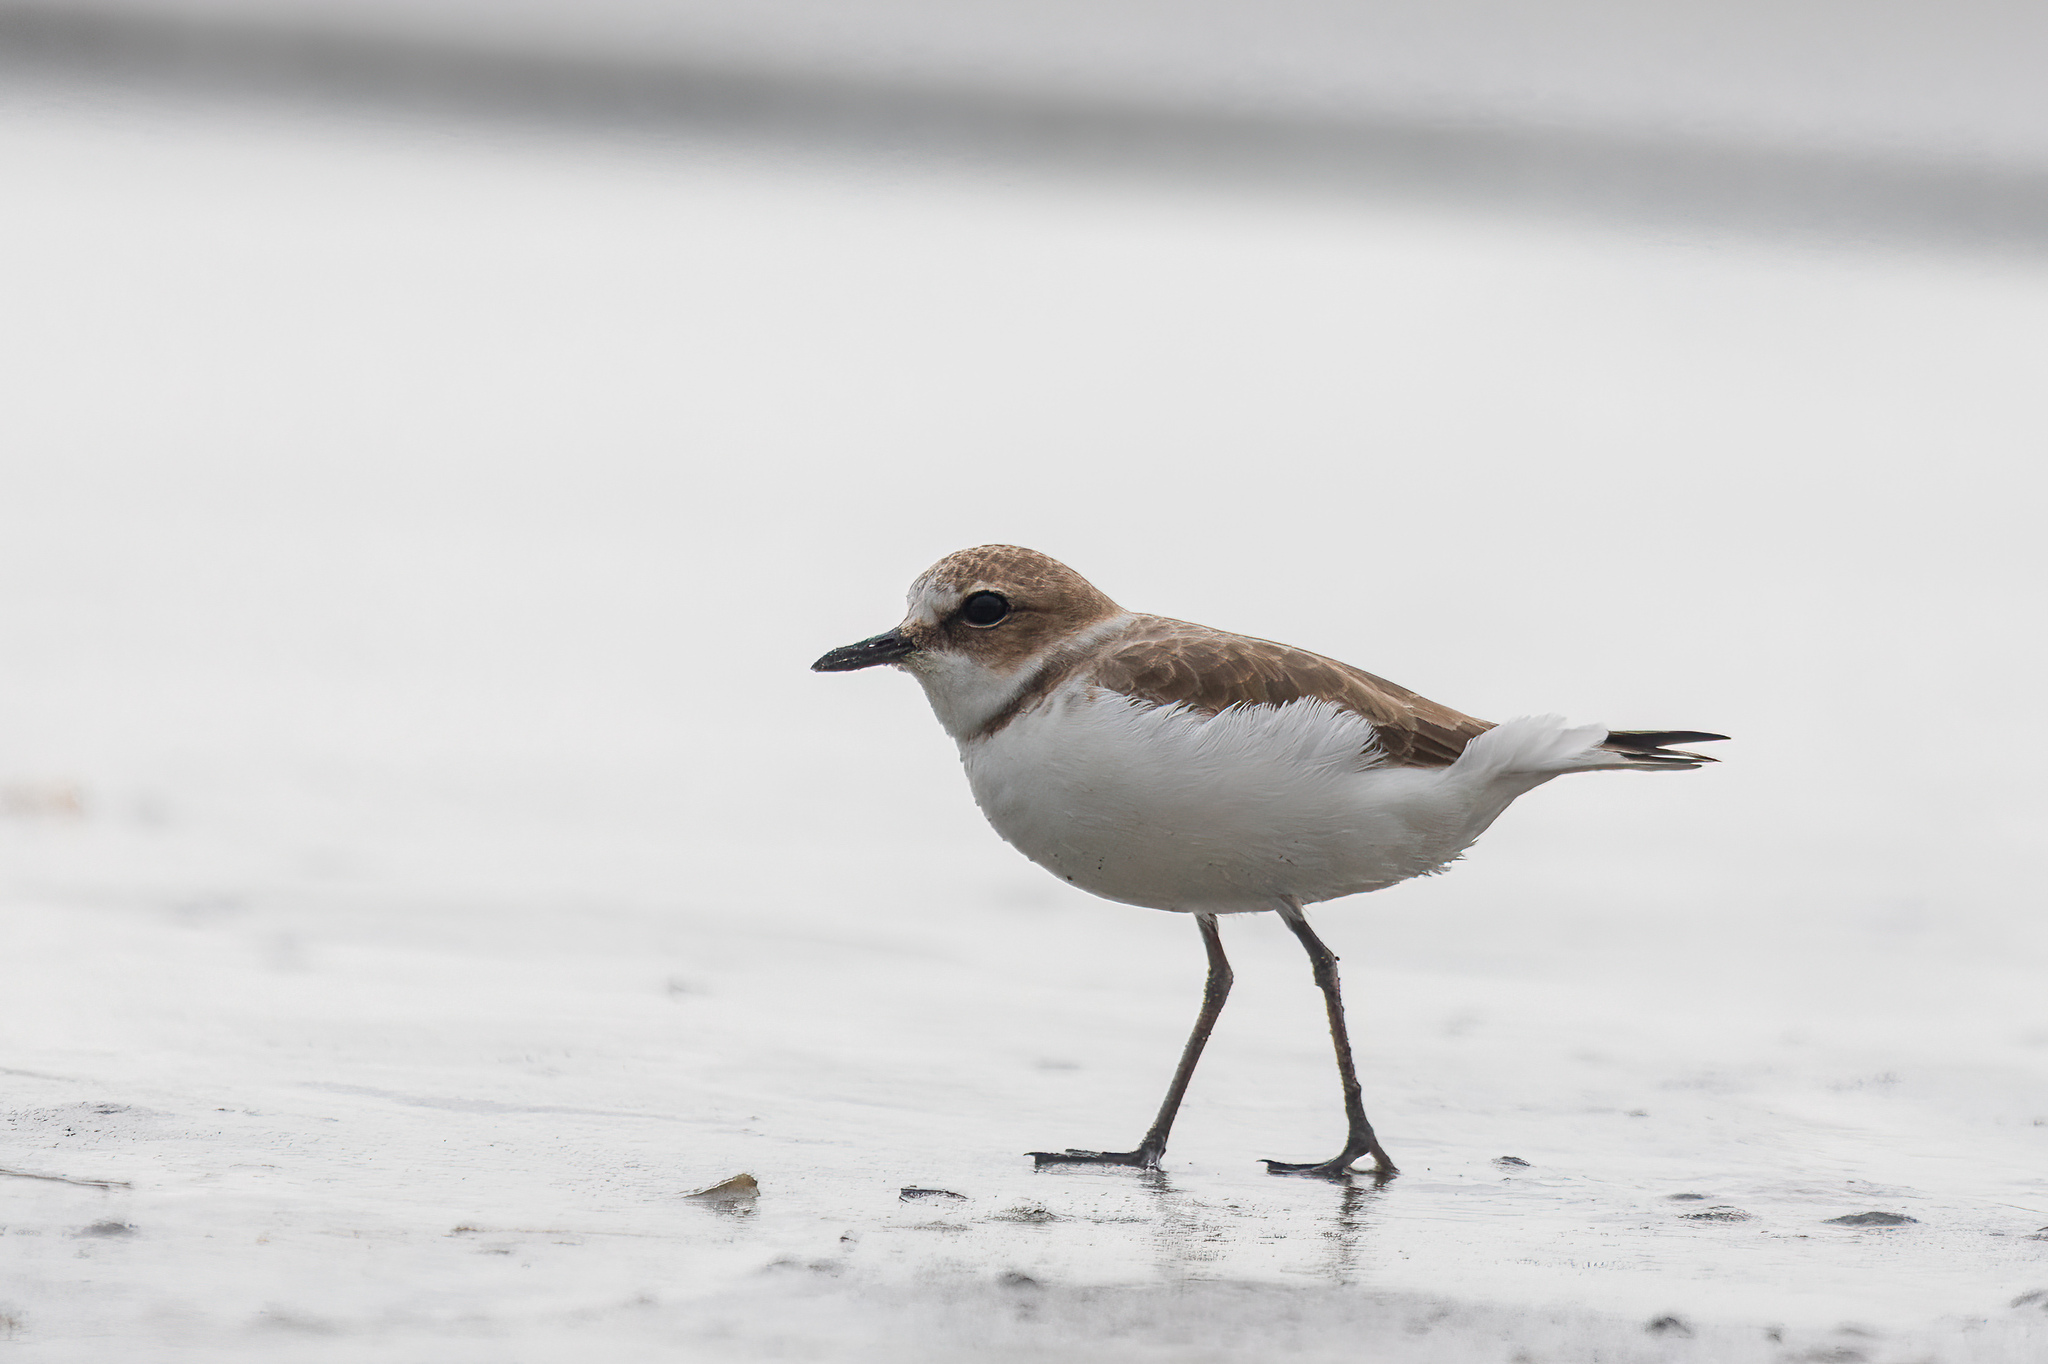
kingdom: Animalia
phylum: Chordata
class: Aves
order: Charadriiformes
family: Charadriidae
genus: Charadrius
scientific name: Charadrius alexandrinus
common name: Kentish plover
